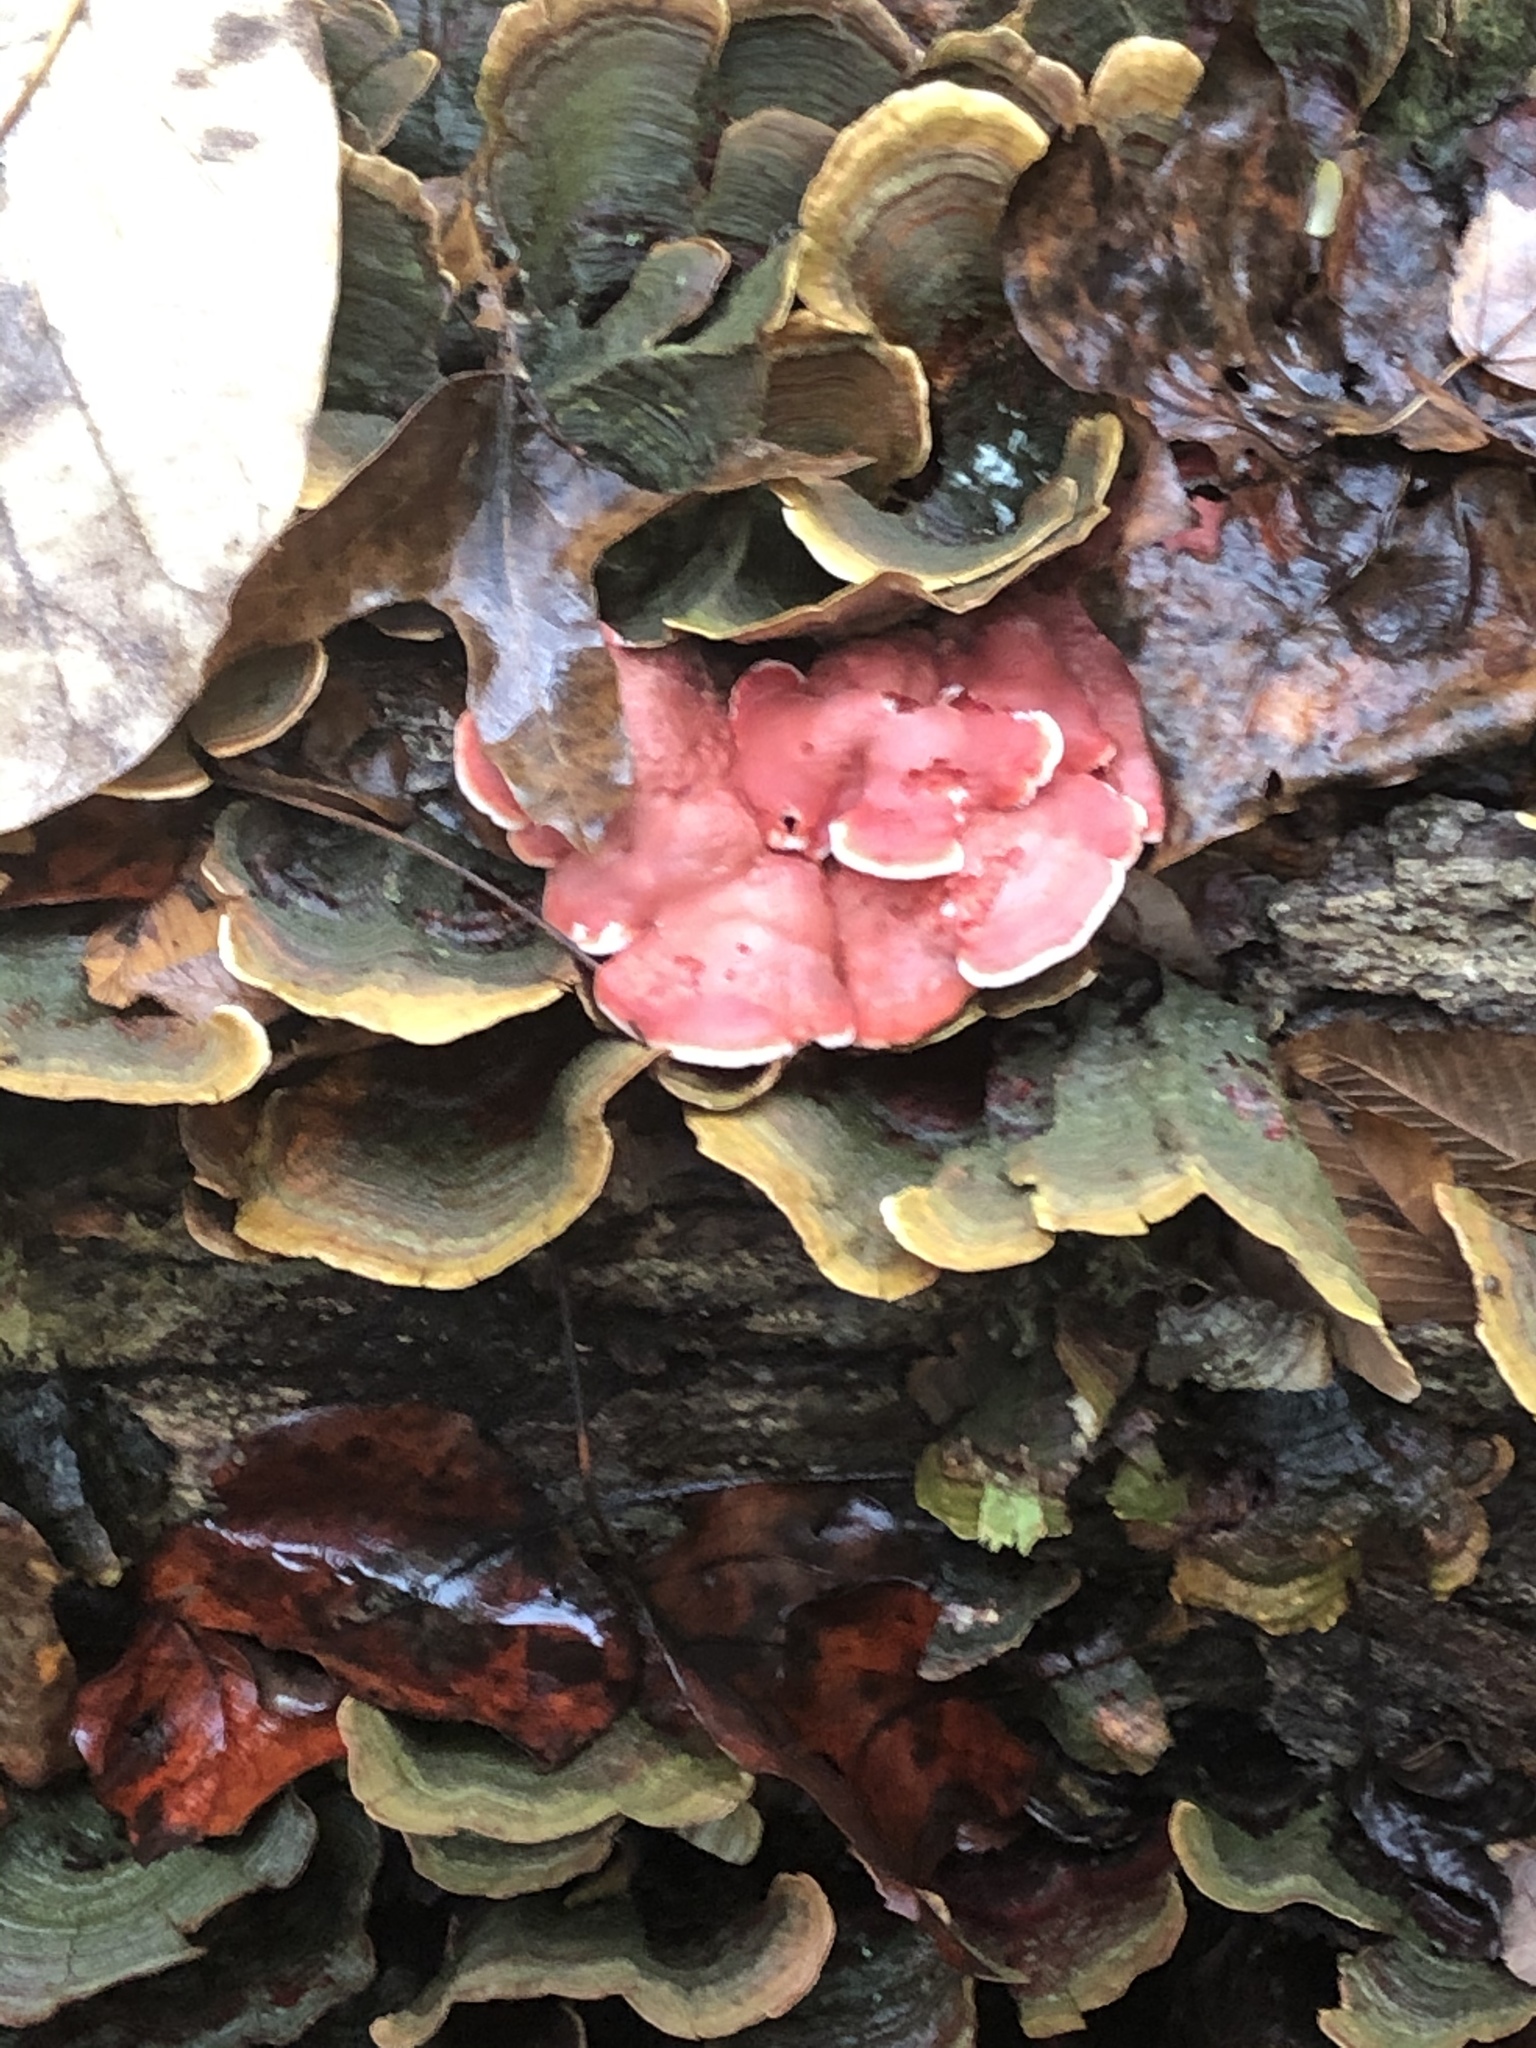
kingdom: Fungi
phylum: Basidiomycota
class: Agaricomycetes
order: Polyporales
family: Irpicaceae
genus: Byssomerulius
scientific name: Byssomerulius incarnatus
